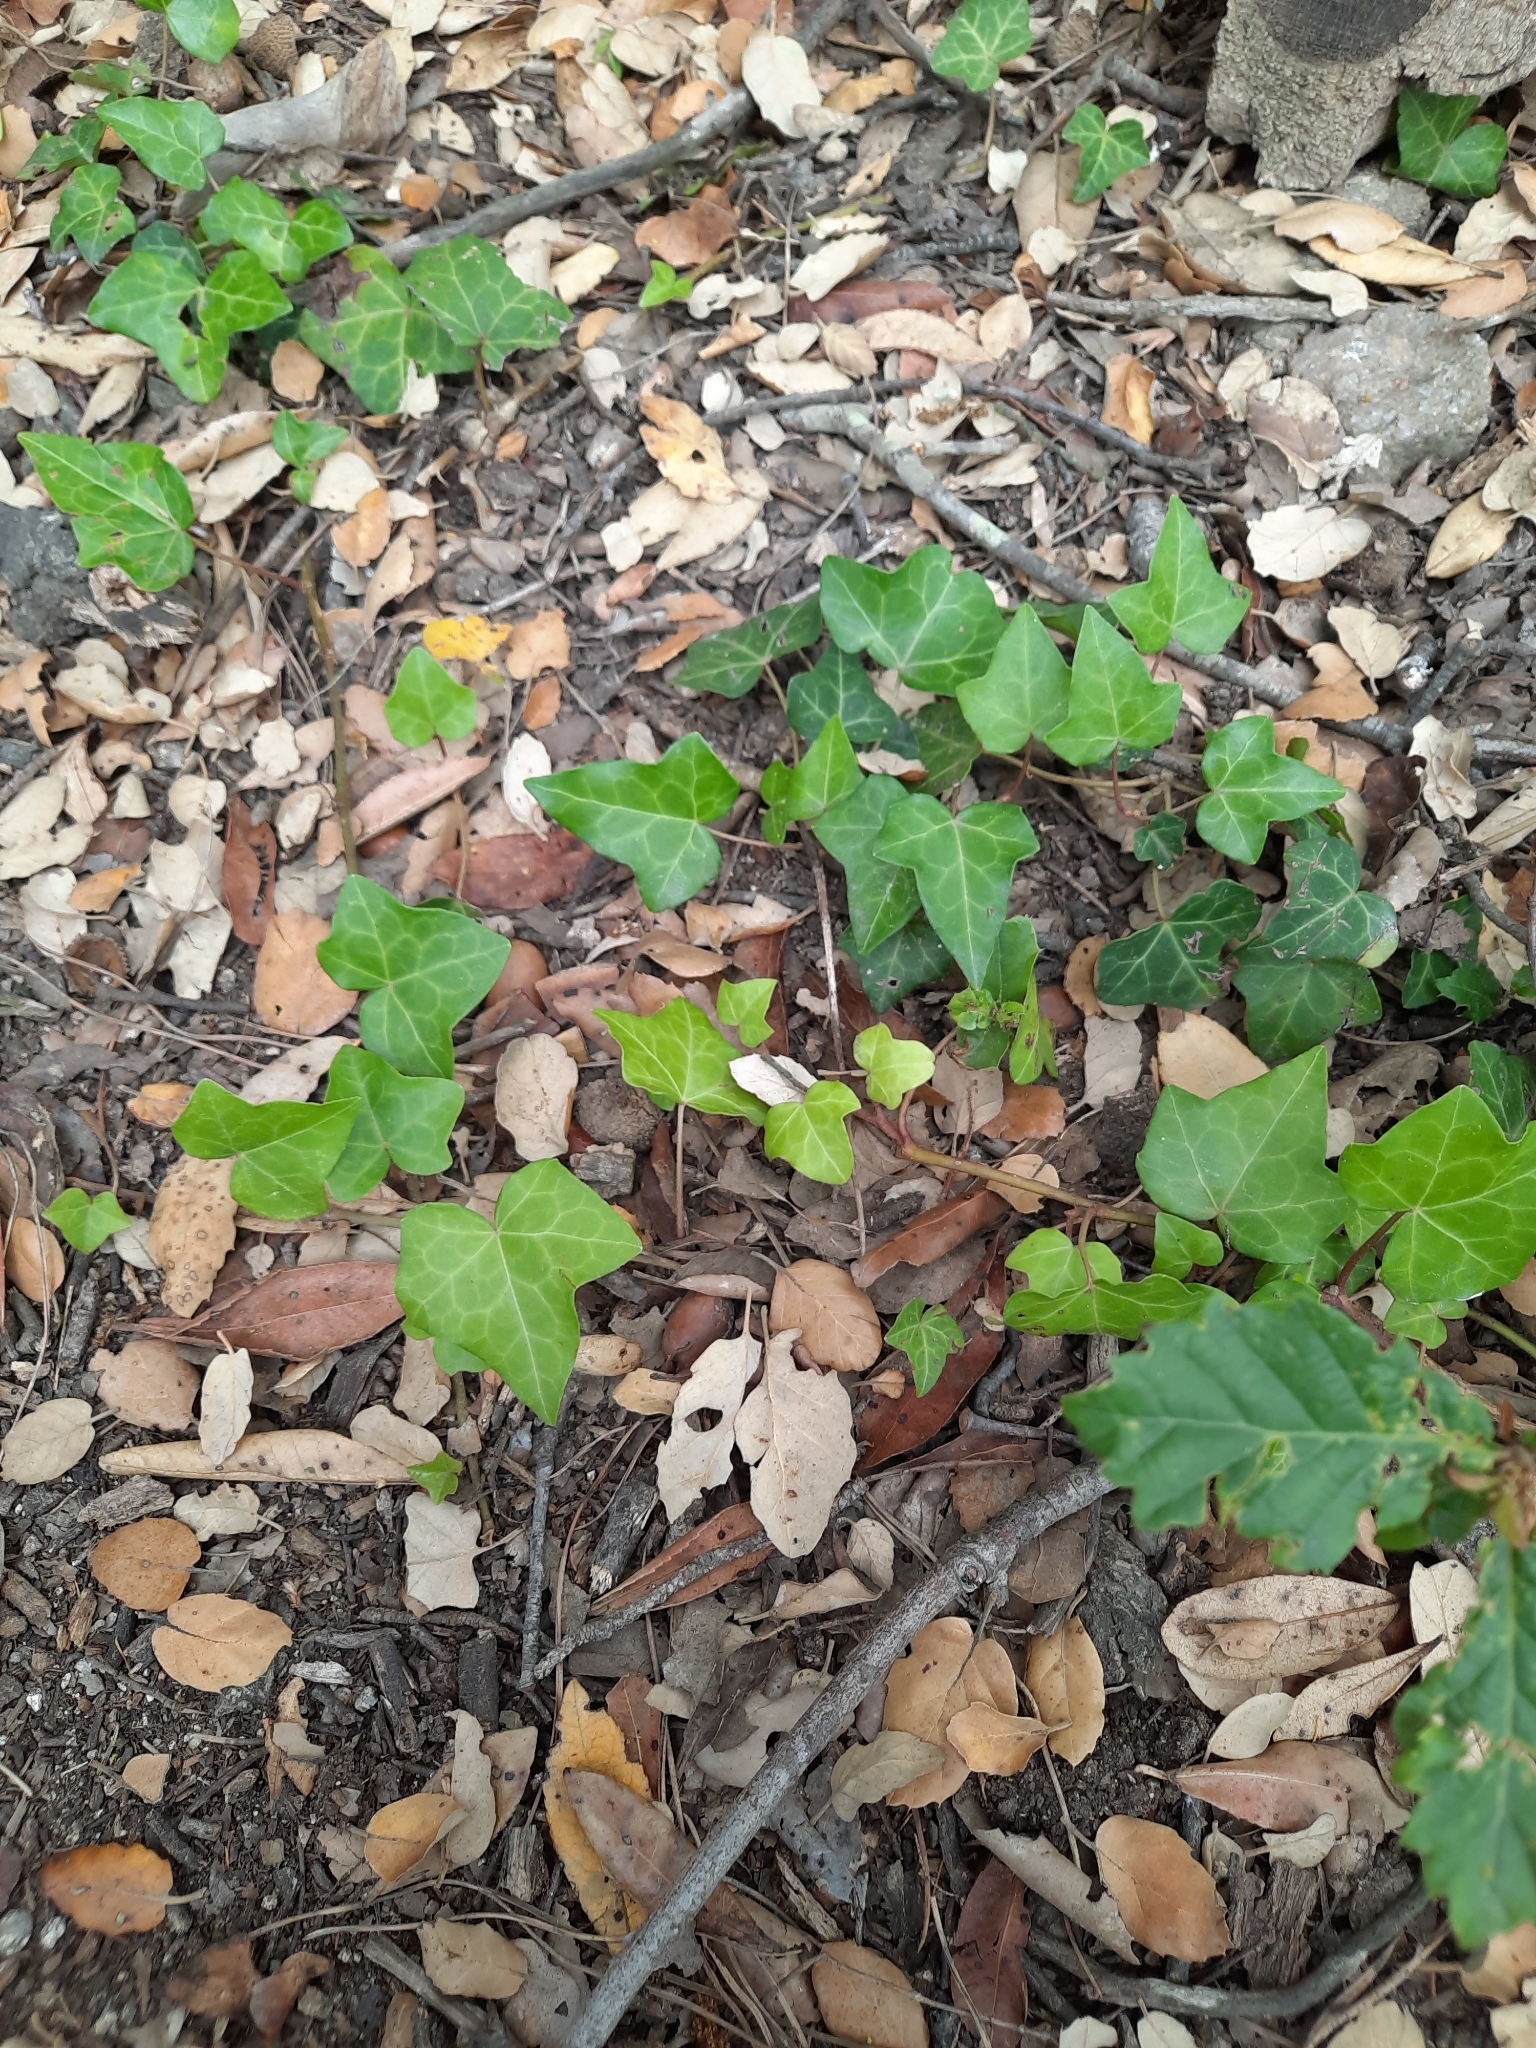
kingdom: Plantae
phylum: Tracheophyta
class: Magnoliopsida
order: Apiales
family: Araliaceae
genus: Hedera
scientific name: Hedera helix
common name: Ivy
